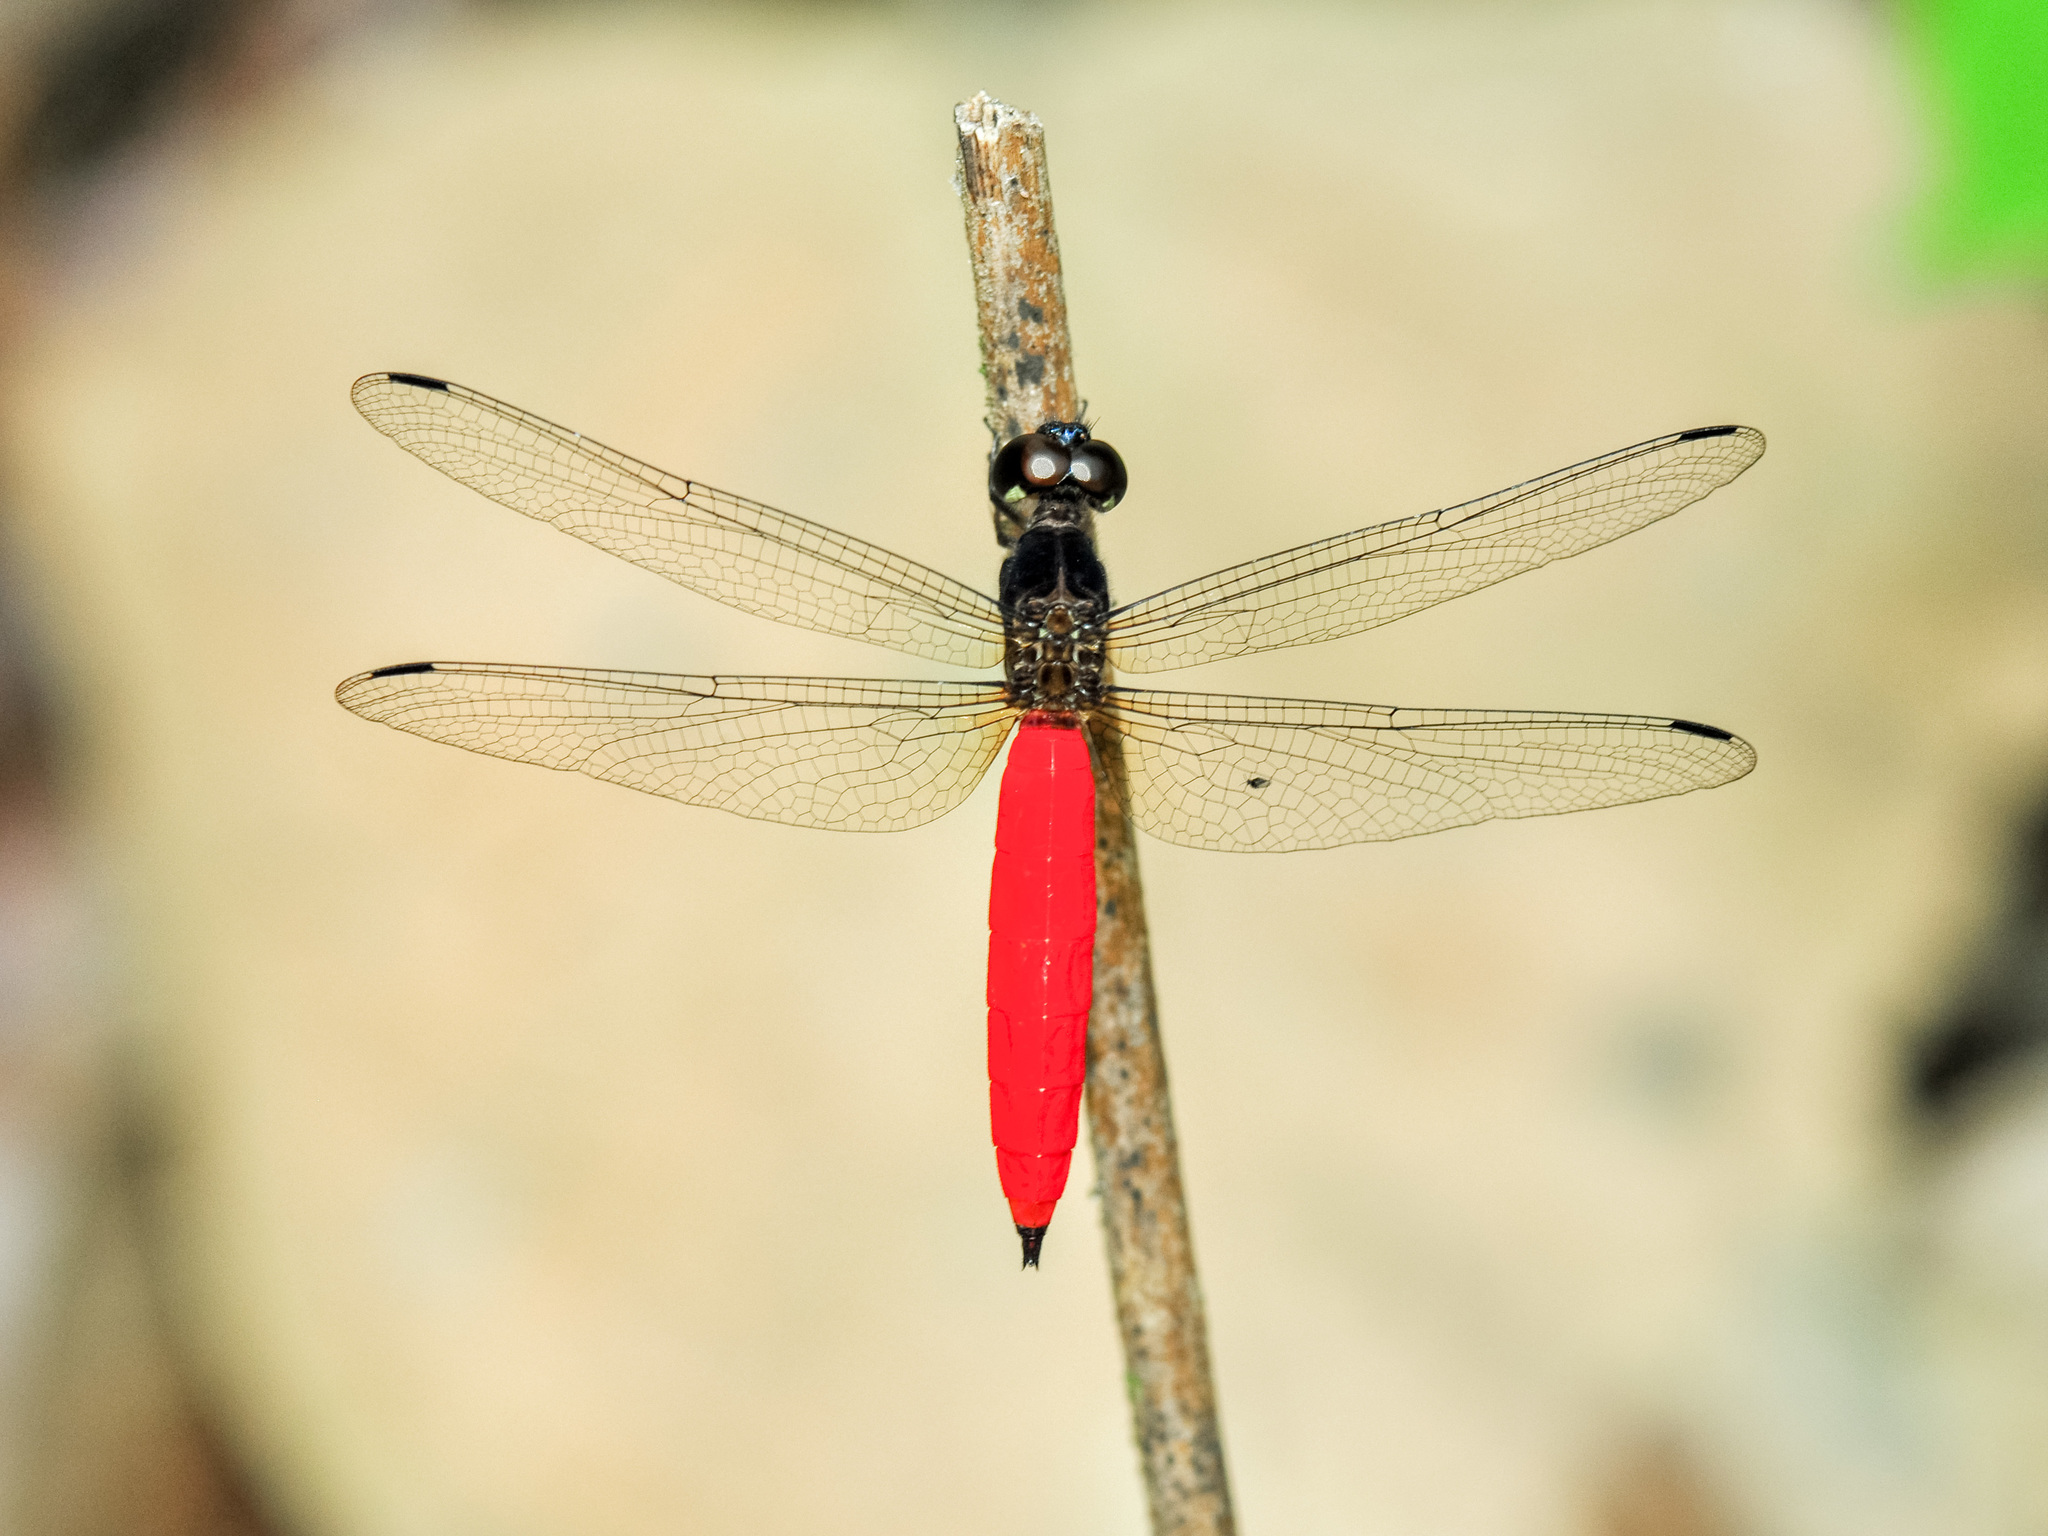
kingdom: Animalia
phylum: Arthropoda
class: Insecta
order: Odonata
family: Libellulidae
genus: Lyriothemis
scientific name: Lyriothemis biappendiculata
